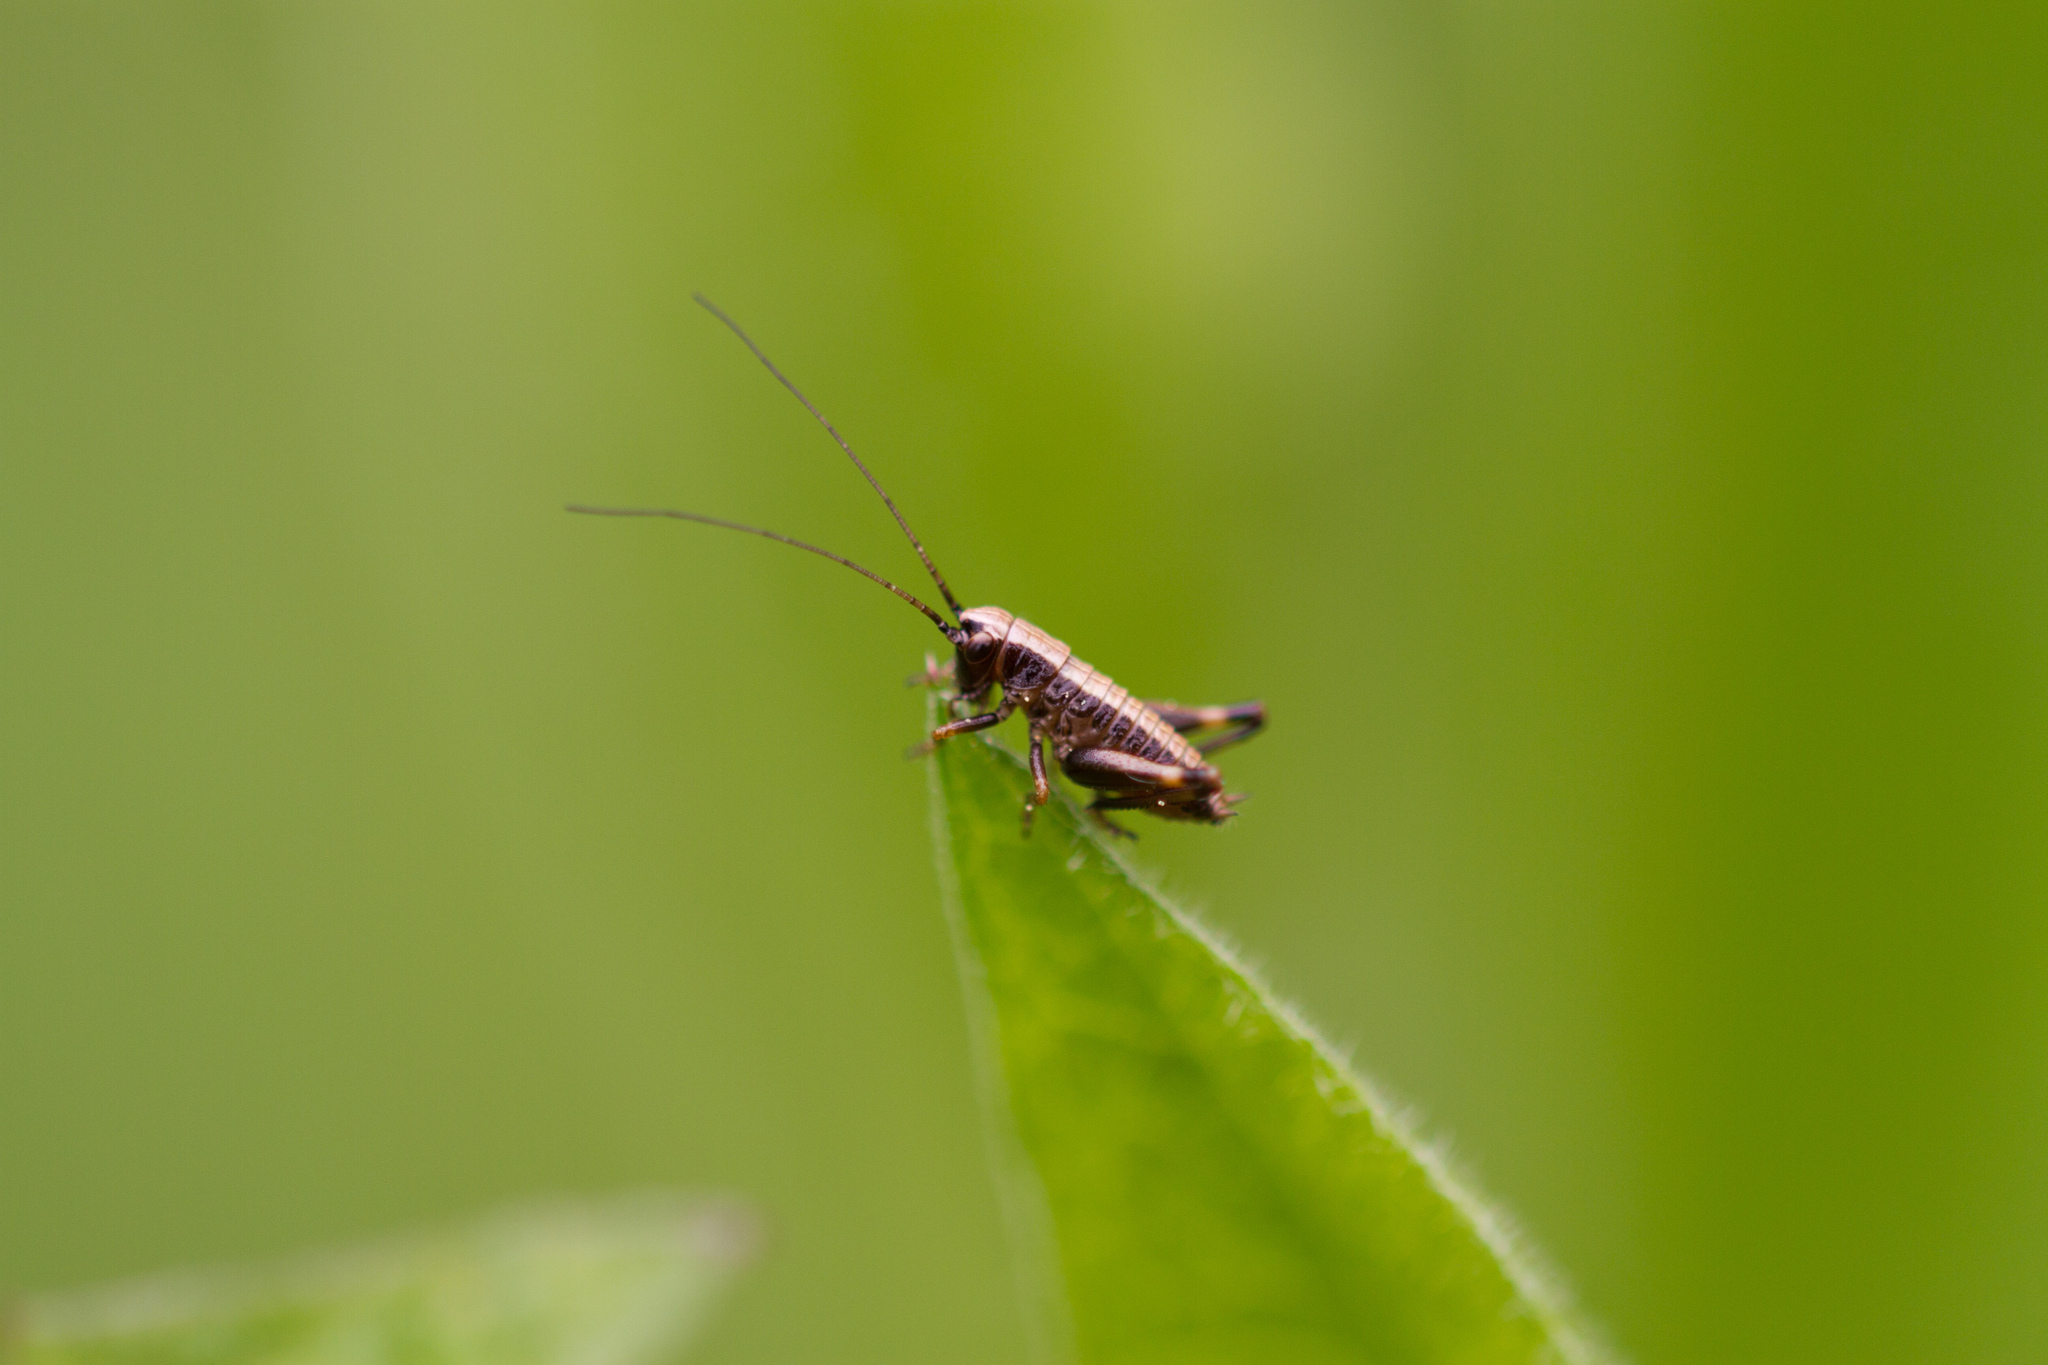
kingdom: Animalia
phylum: Arthropoda
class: Insecta
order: Orthoptera
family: Tettigoniidae
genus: Pholidoptera
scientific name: Pholidoptera griseoaptera
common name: Dark bush-cricket
